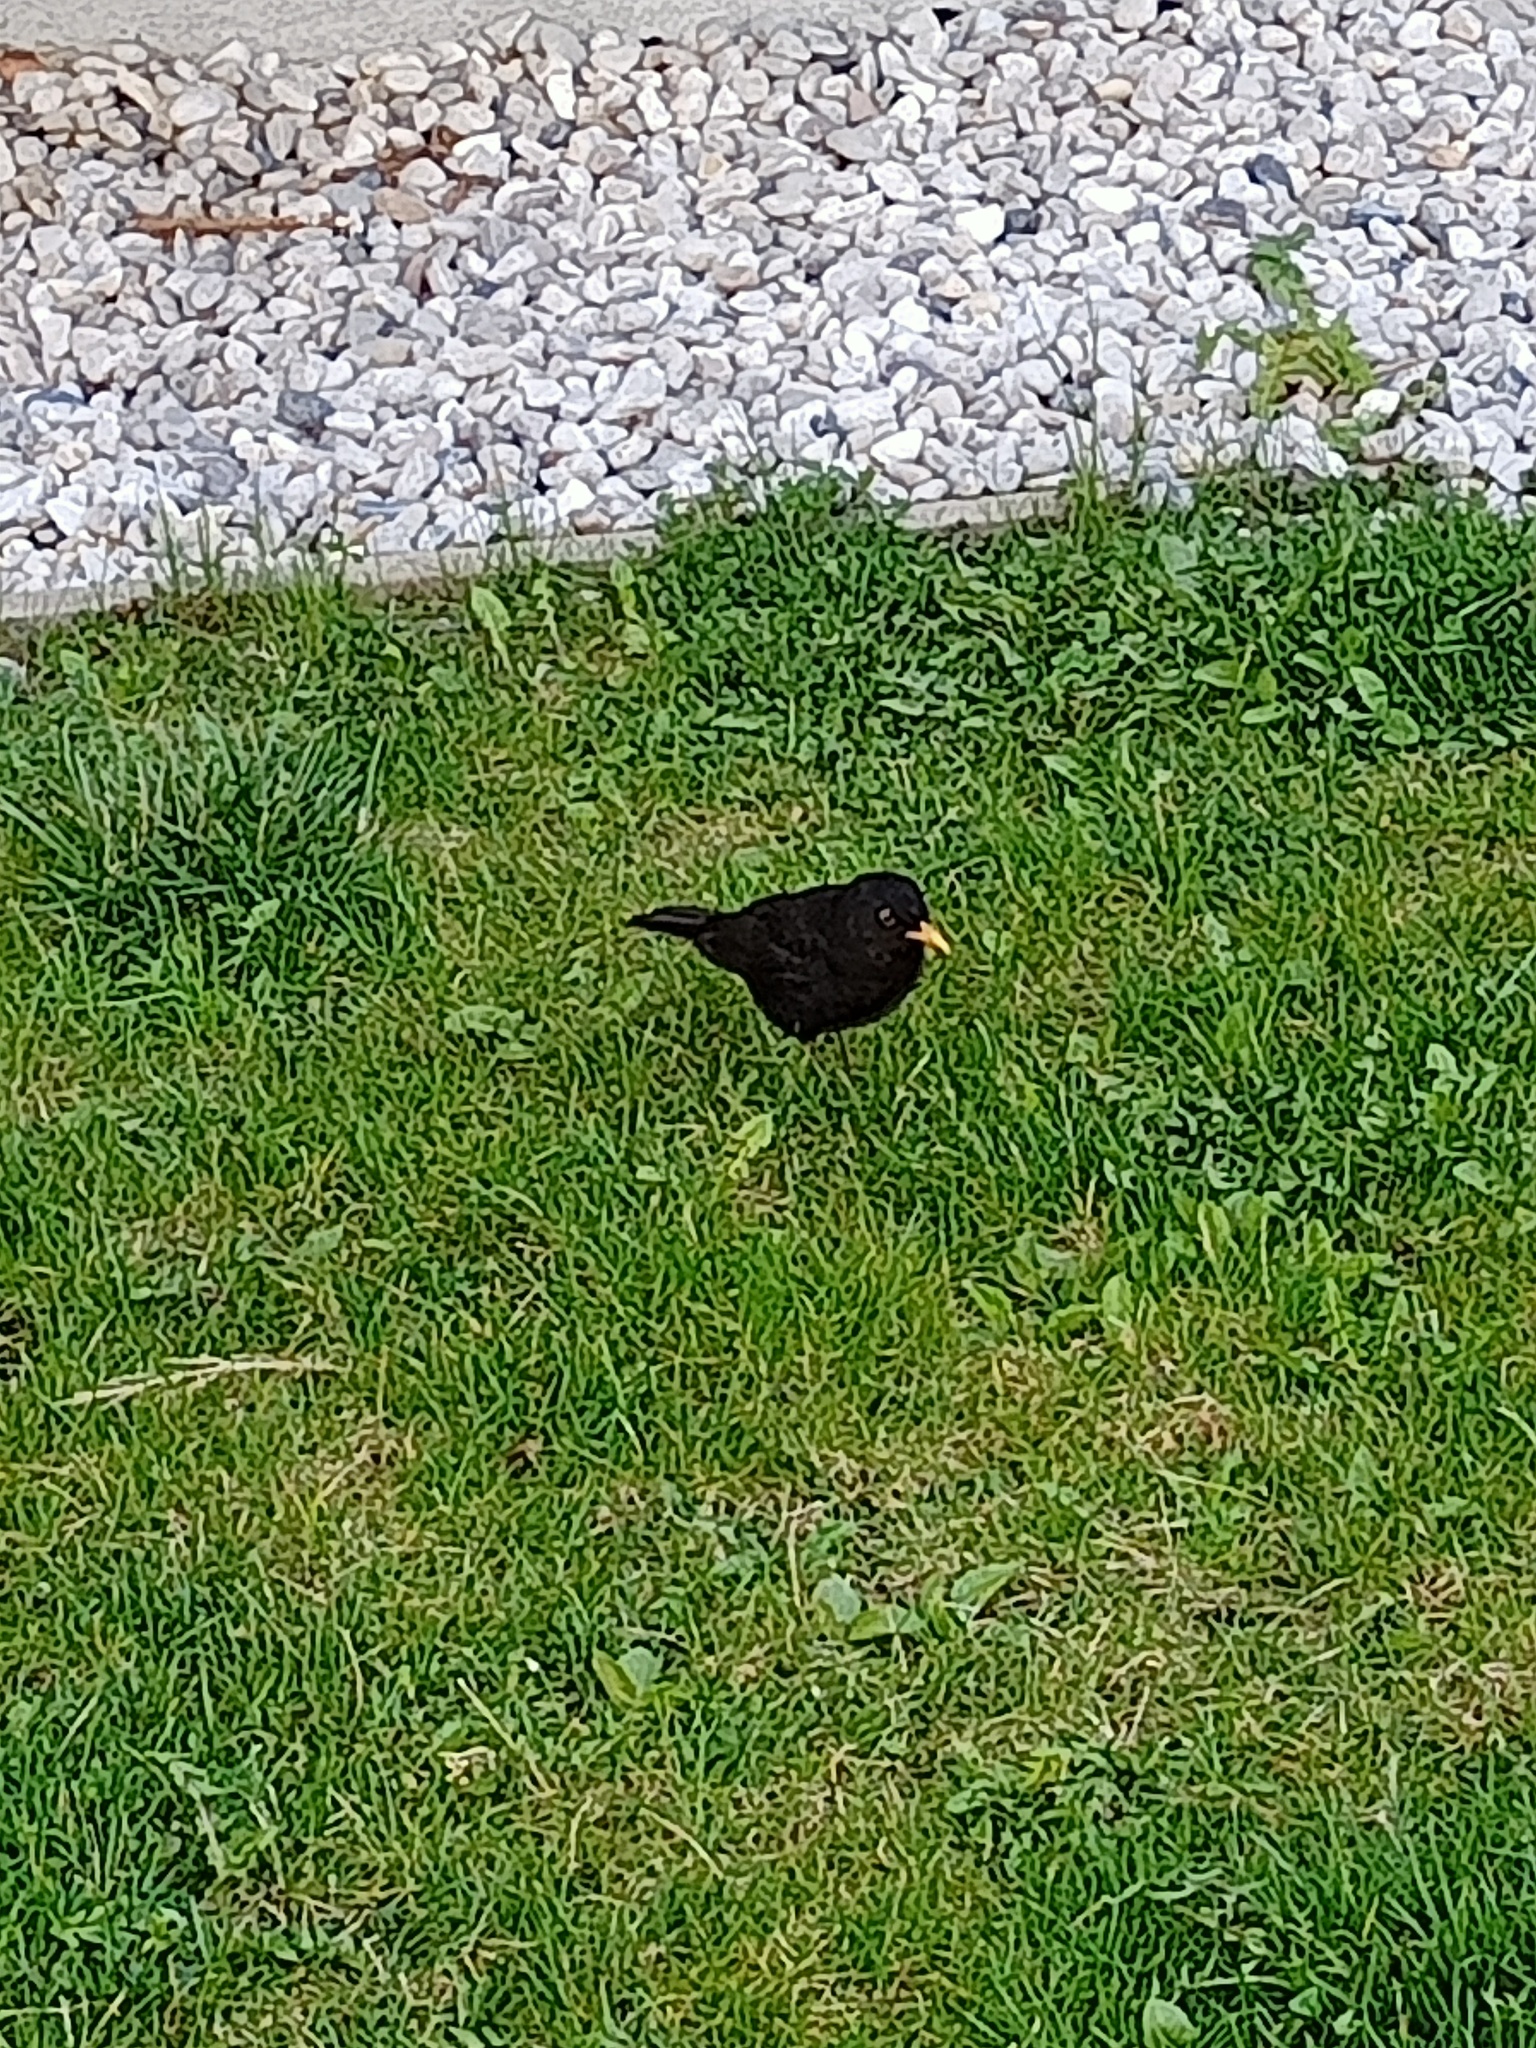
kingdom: Animalia
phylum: Chordata
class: Aves
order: Passeriformes
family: Turdidae
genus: Turdus
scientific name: Turdus merula
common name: Common blackbird
